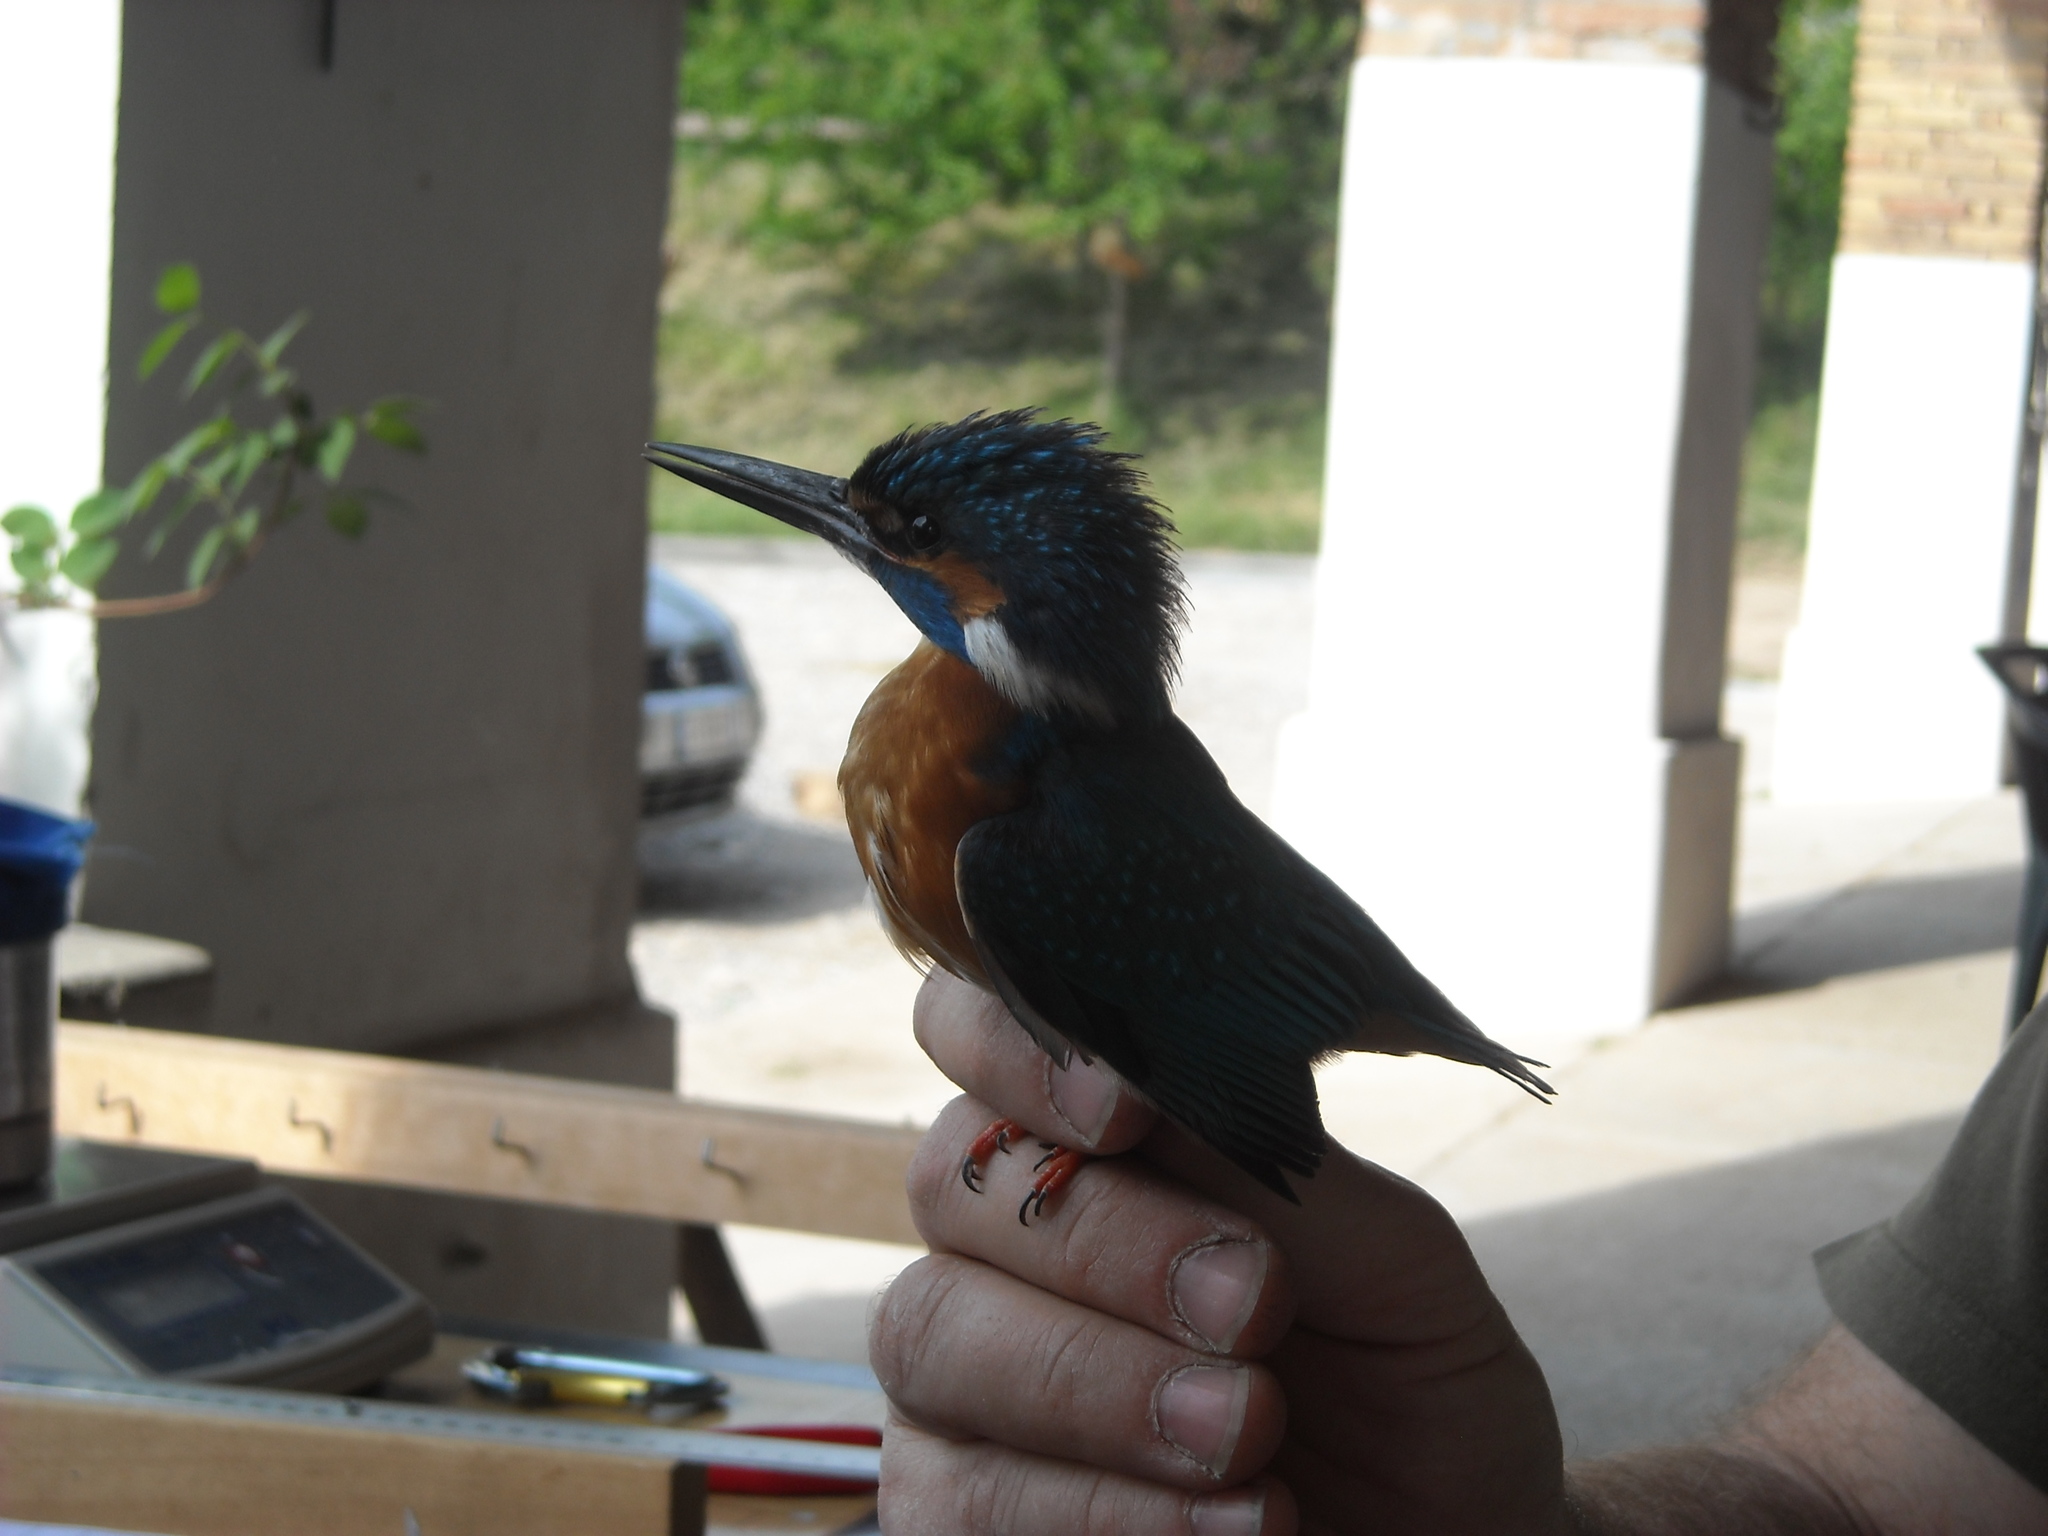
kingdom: Animalia
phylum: Chordata
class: Aves
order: Coraciiformes
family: Alcedinidae
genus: Alcedo
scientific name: Alcedo atthis
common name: Common kingfisher
